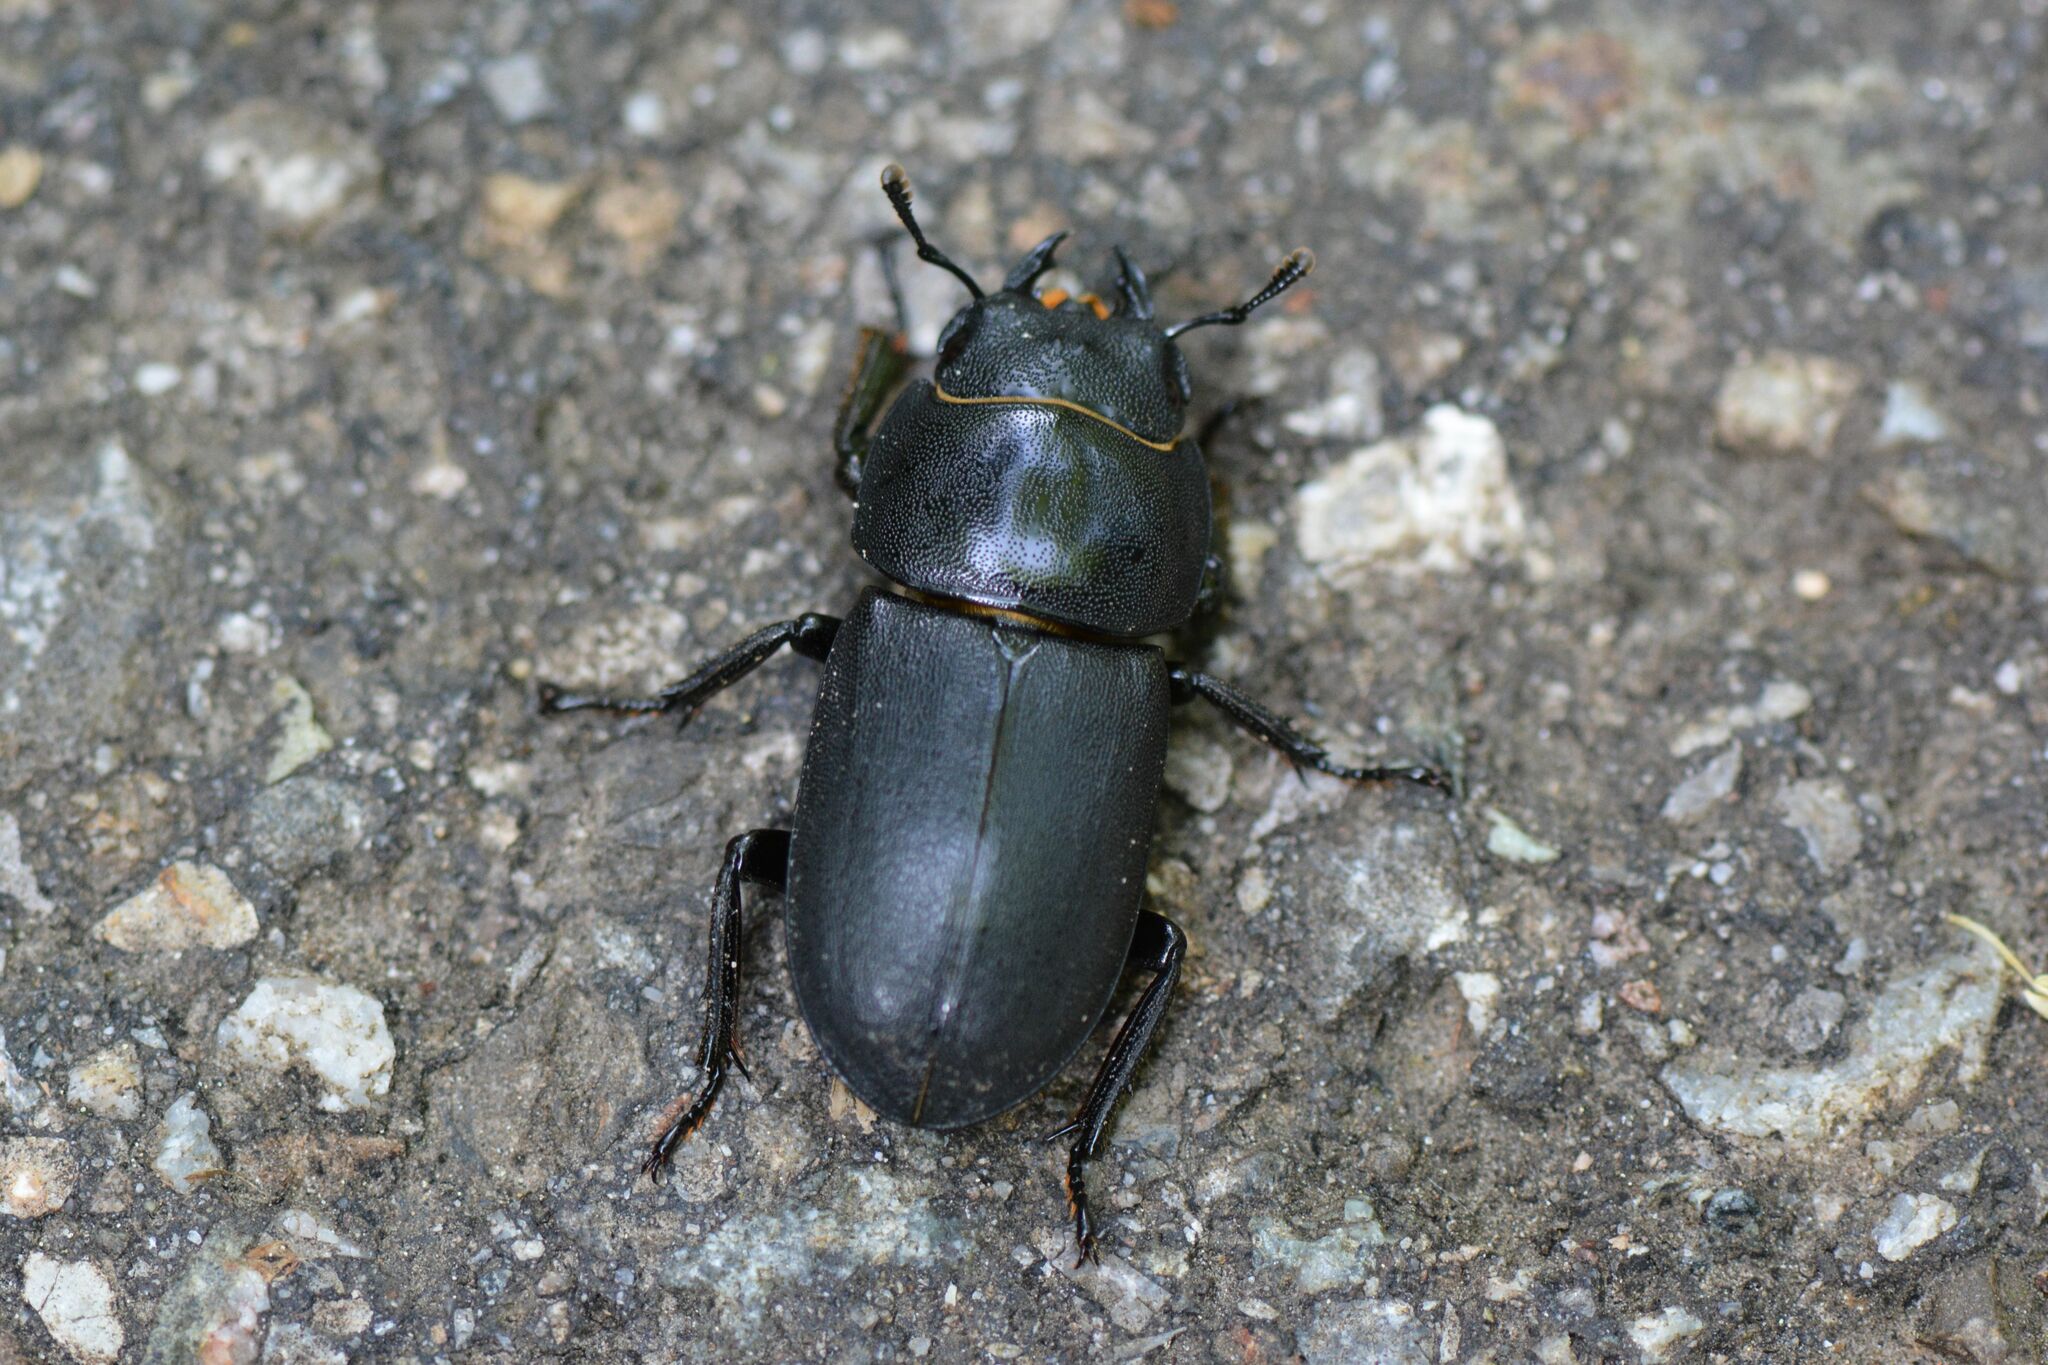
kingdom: Animalia
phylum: Arthropoda
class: Insecta
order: Coleoptera
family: Lucanidae
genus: Dorcus
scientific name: Dorcus parallelipipedus
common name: Lesser stag beetle
